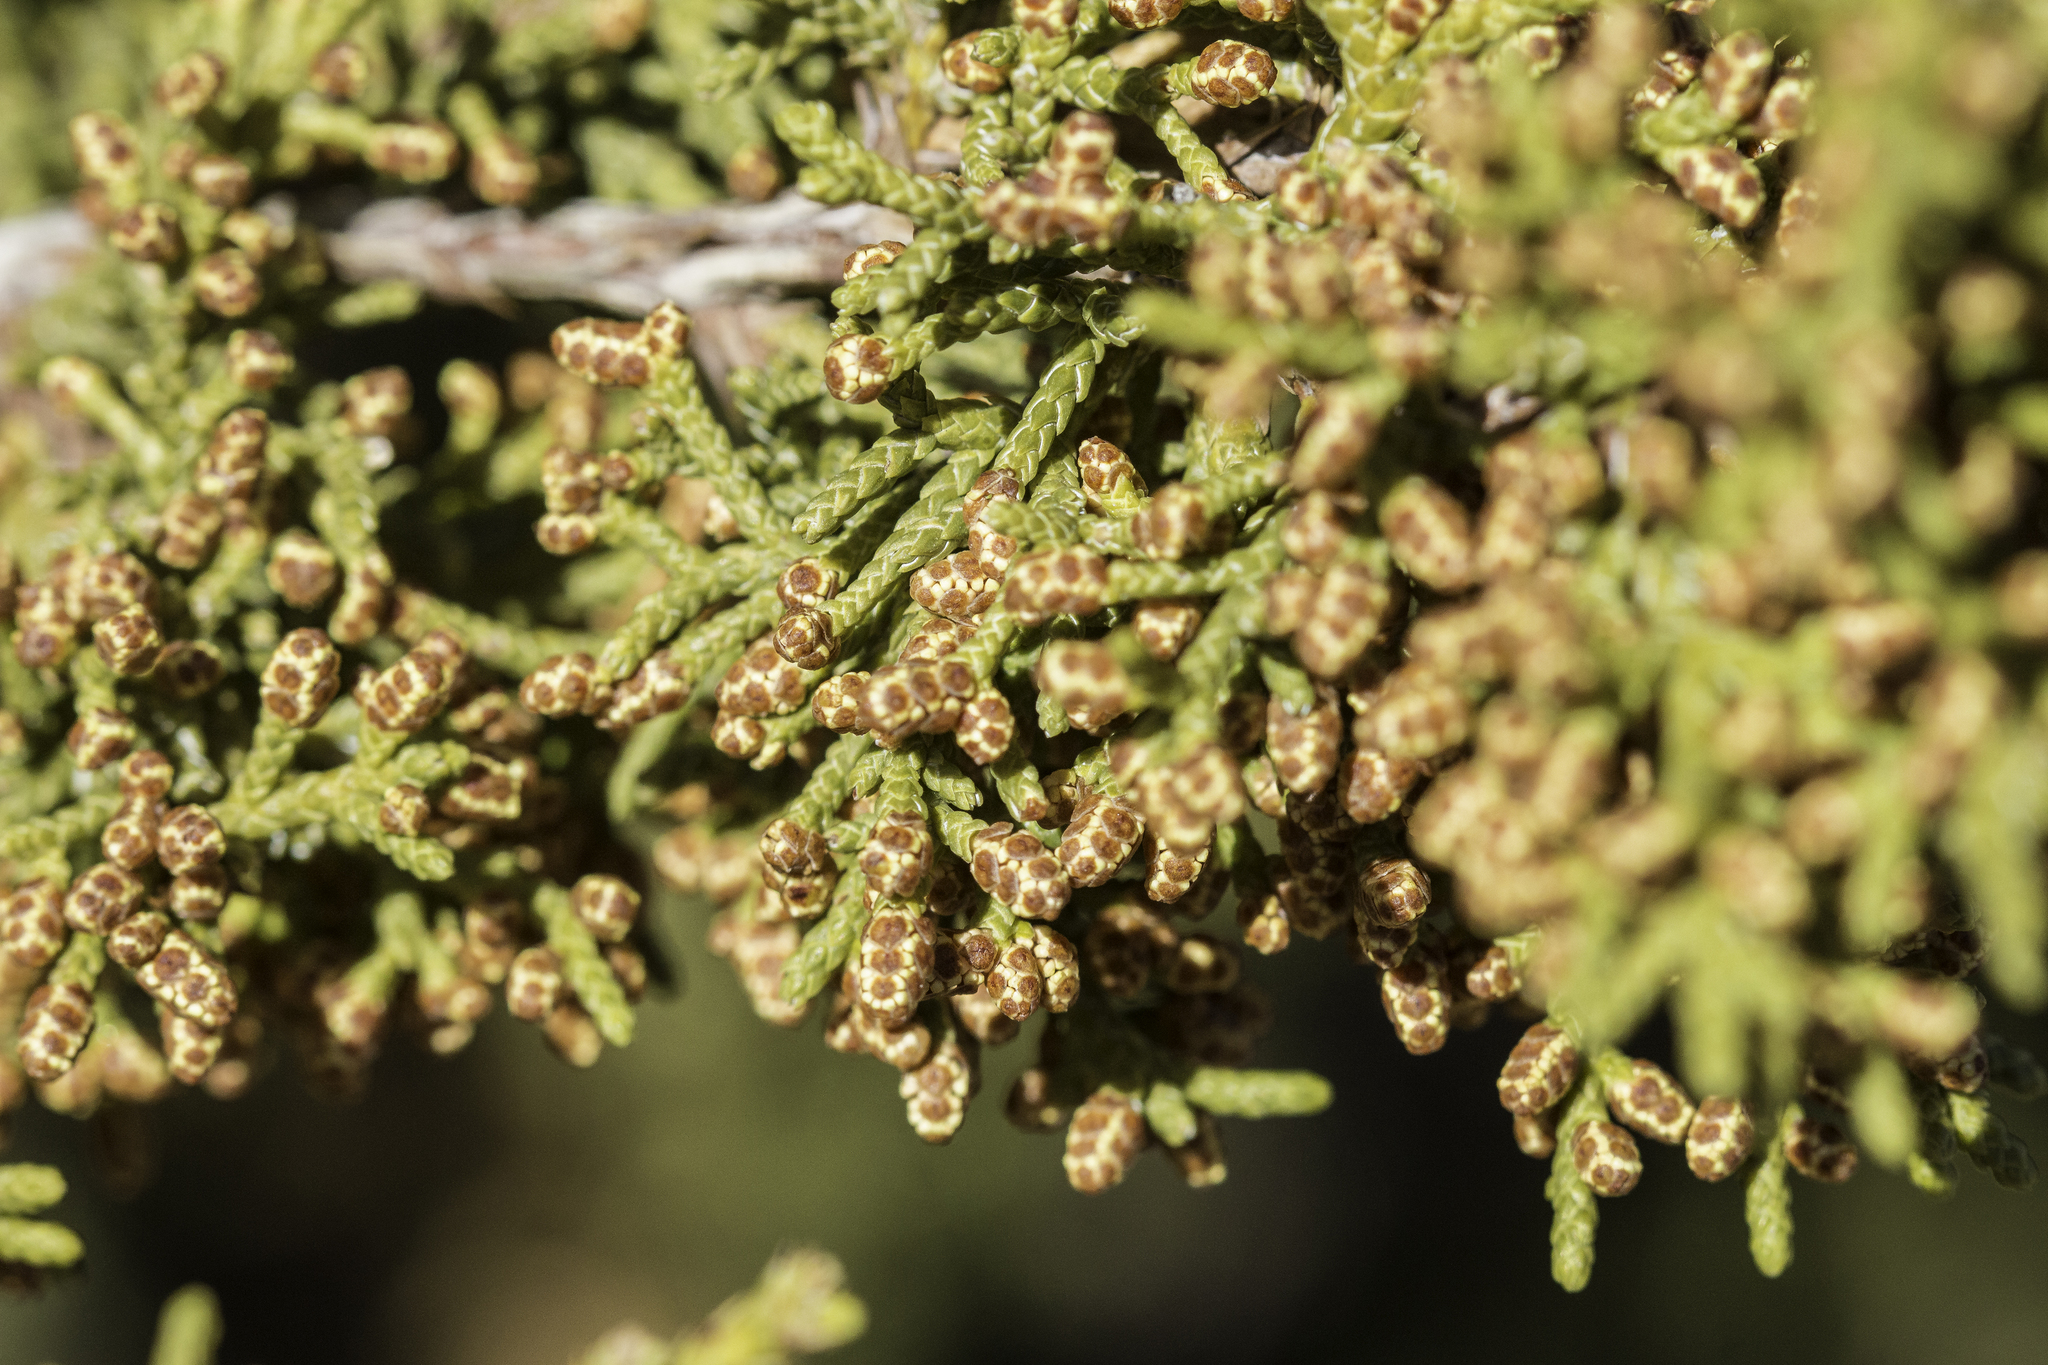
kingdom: Plantae
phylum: Tracheophyta
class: Pinopsida
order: Pinales
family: Cupressaceae
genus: Juniperus
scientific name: Juniperus monosperma
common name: One-seed juniper
